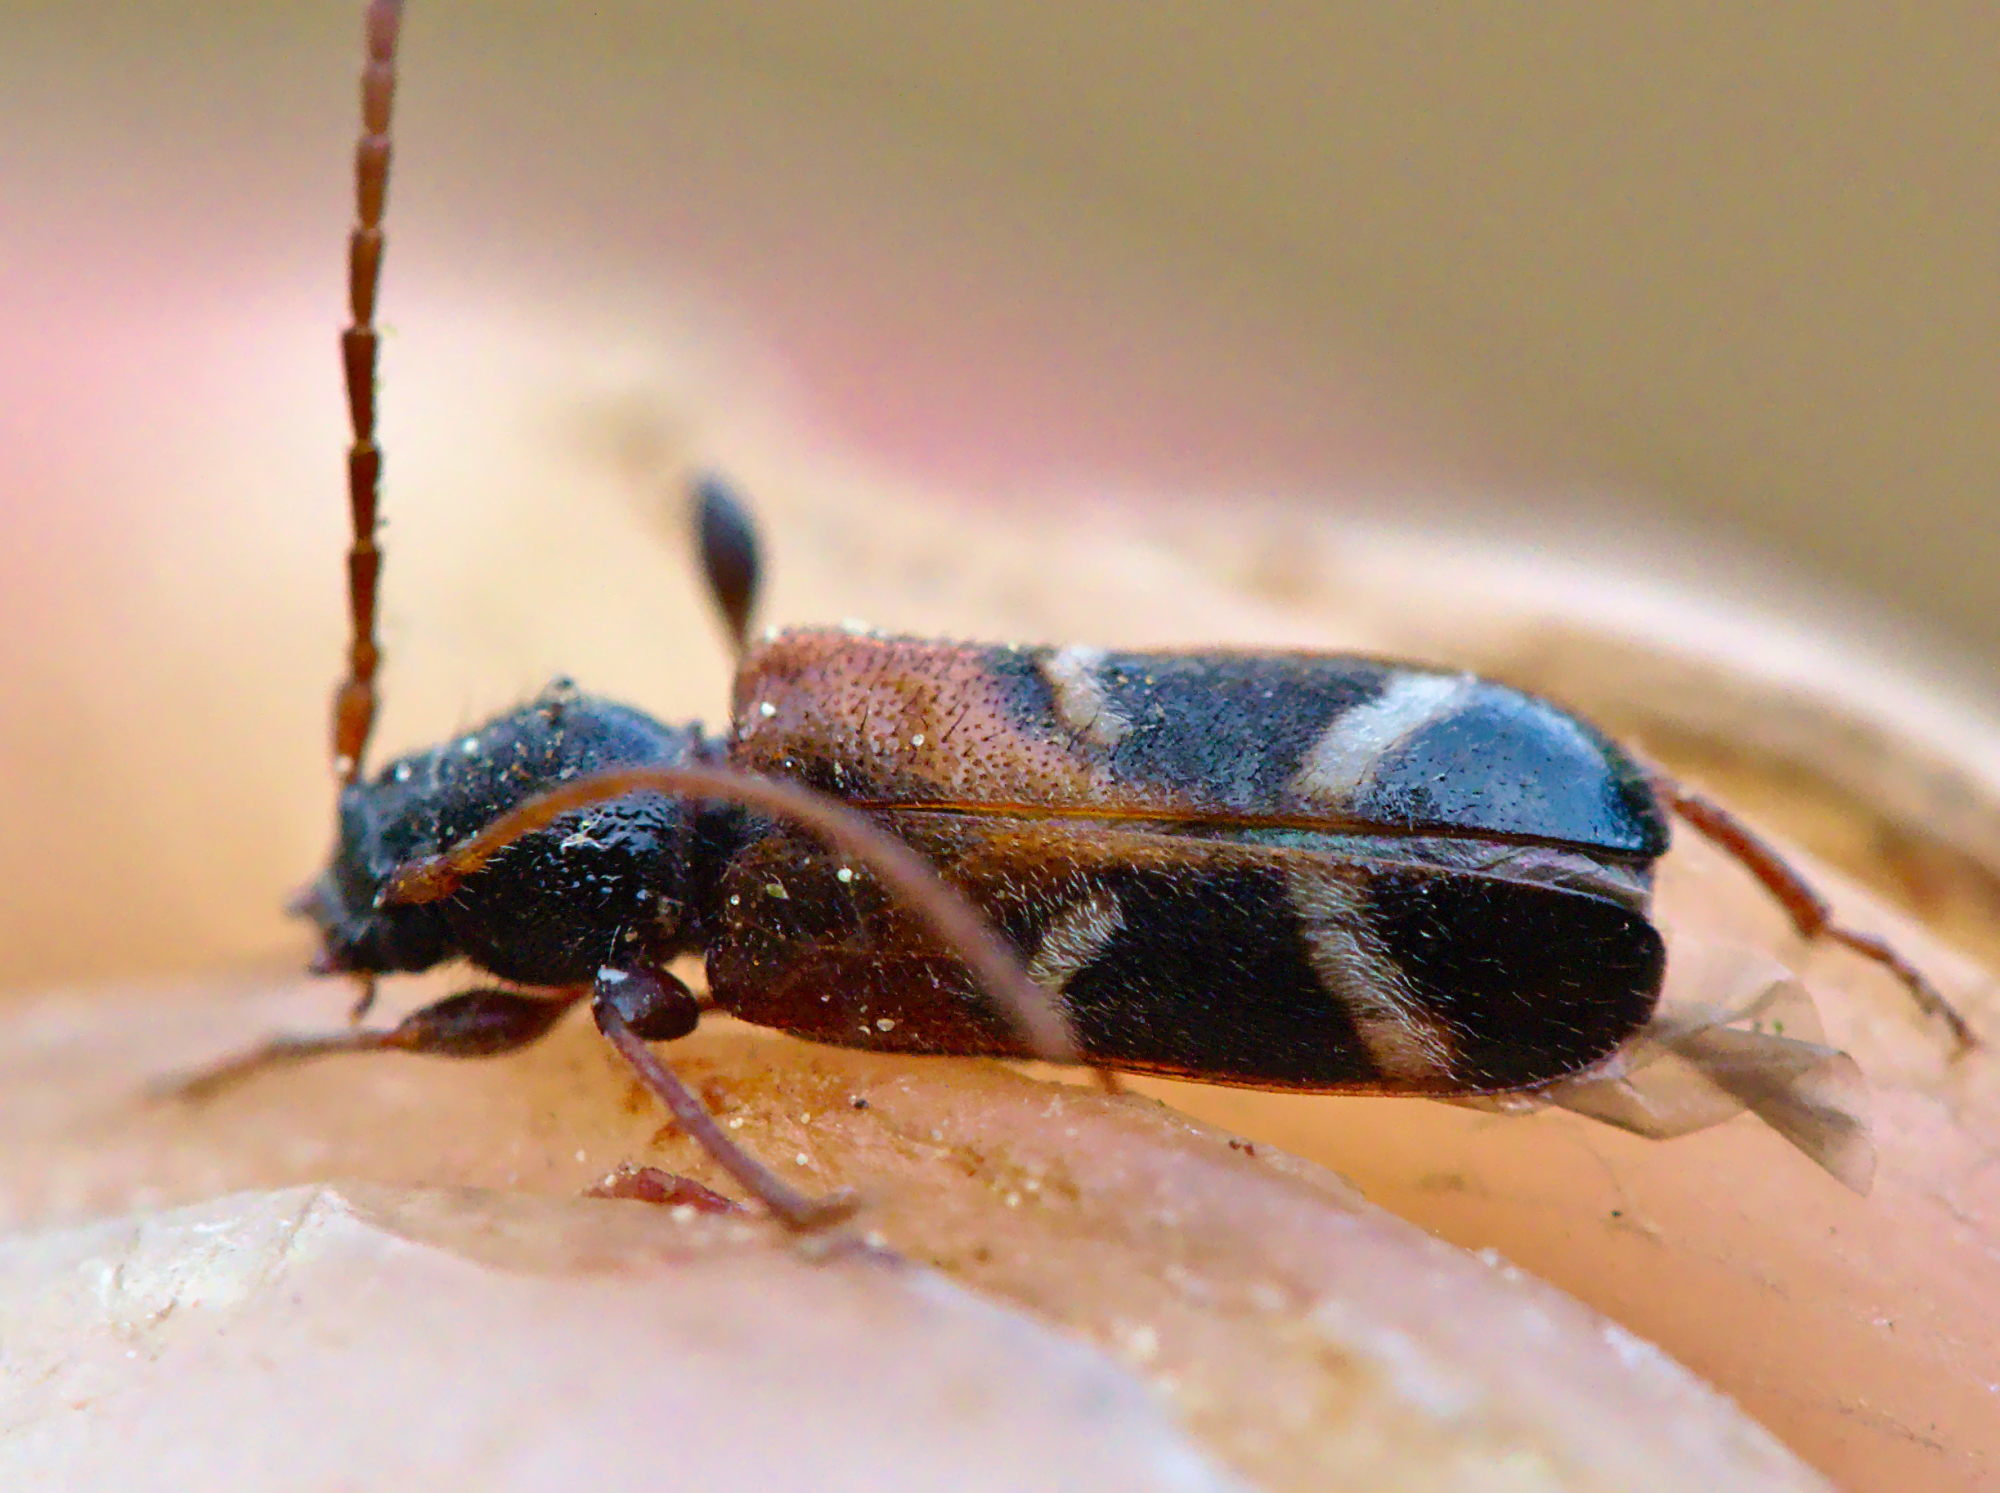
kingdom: Animalia
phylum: Arthropoda
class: Insecta
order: Coleoptera
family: Cerambycidae
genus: Poecilium
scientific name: Poecilium alni
